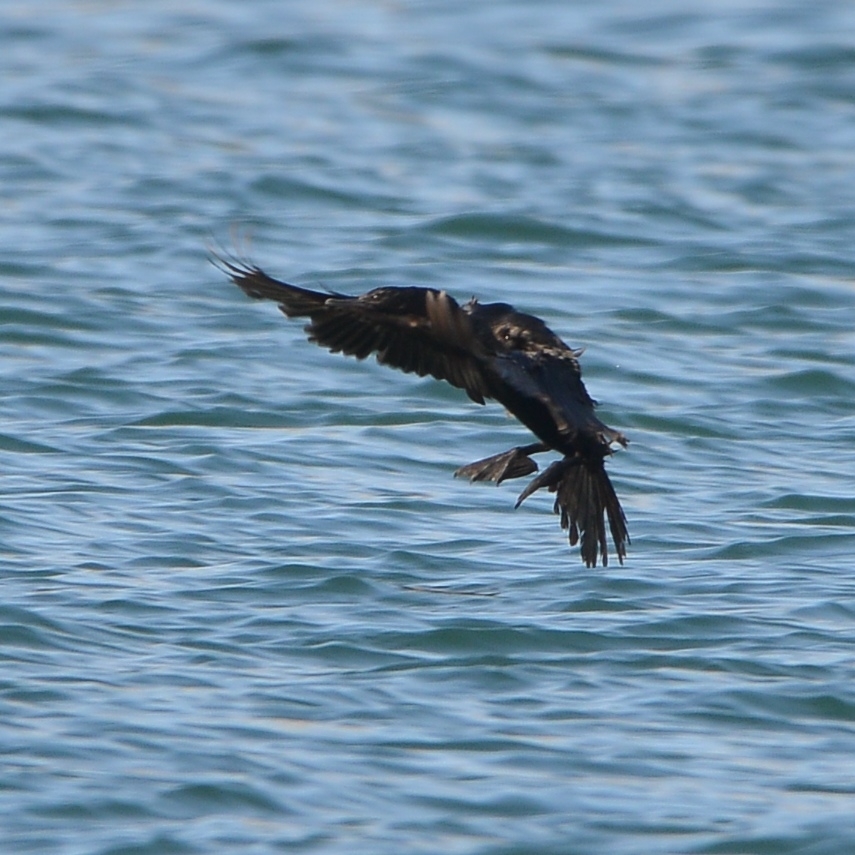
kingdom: Animalia
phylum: Chordata
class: Aves
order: Suliformes
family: Phalacrocoracidae
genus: Phalacrocorax
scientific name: Phalacrocorax pelagicus
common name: Pelagic cormorant
